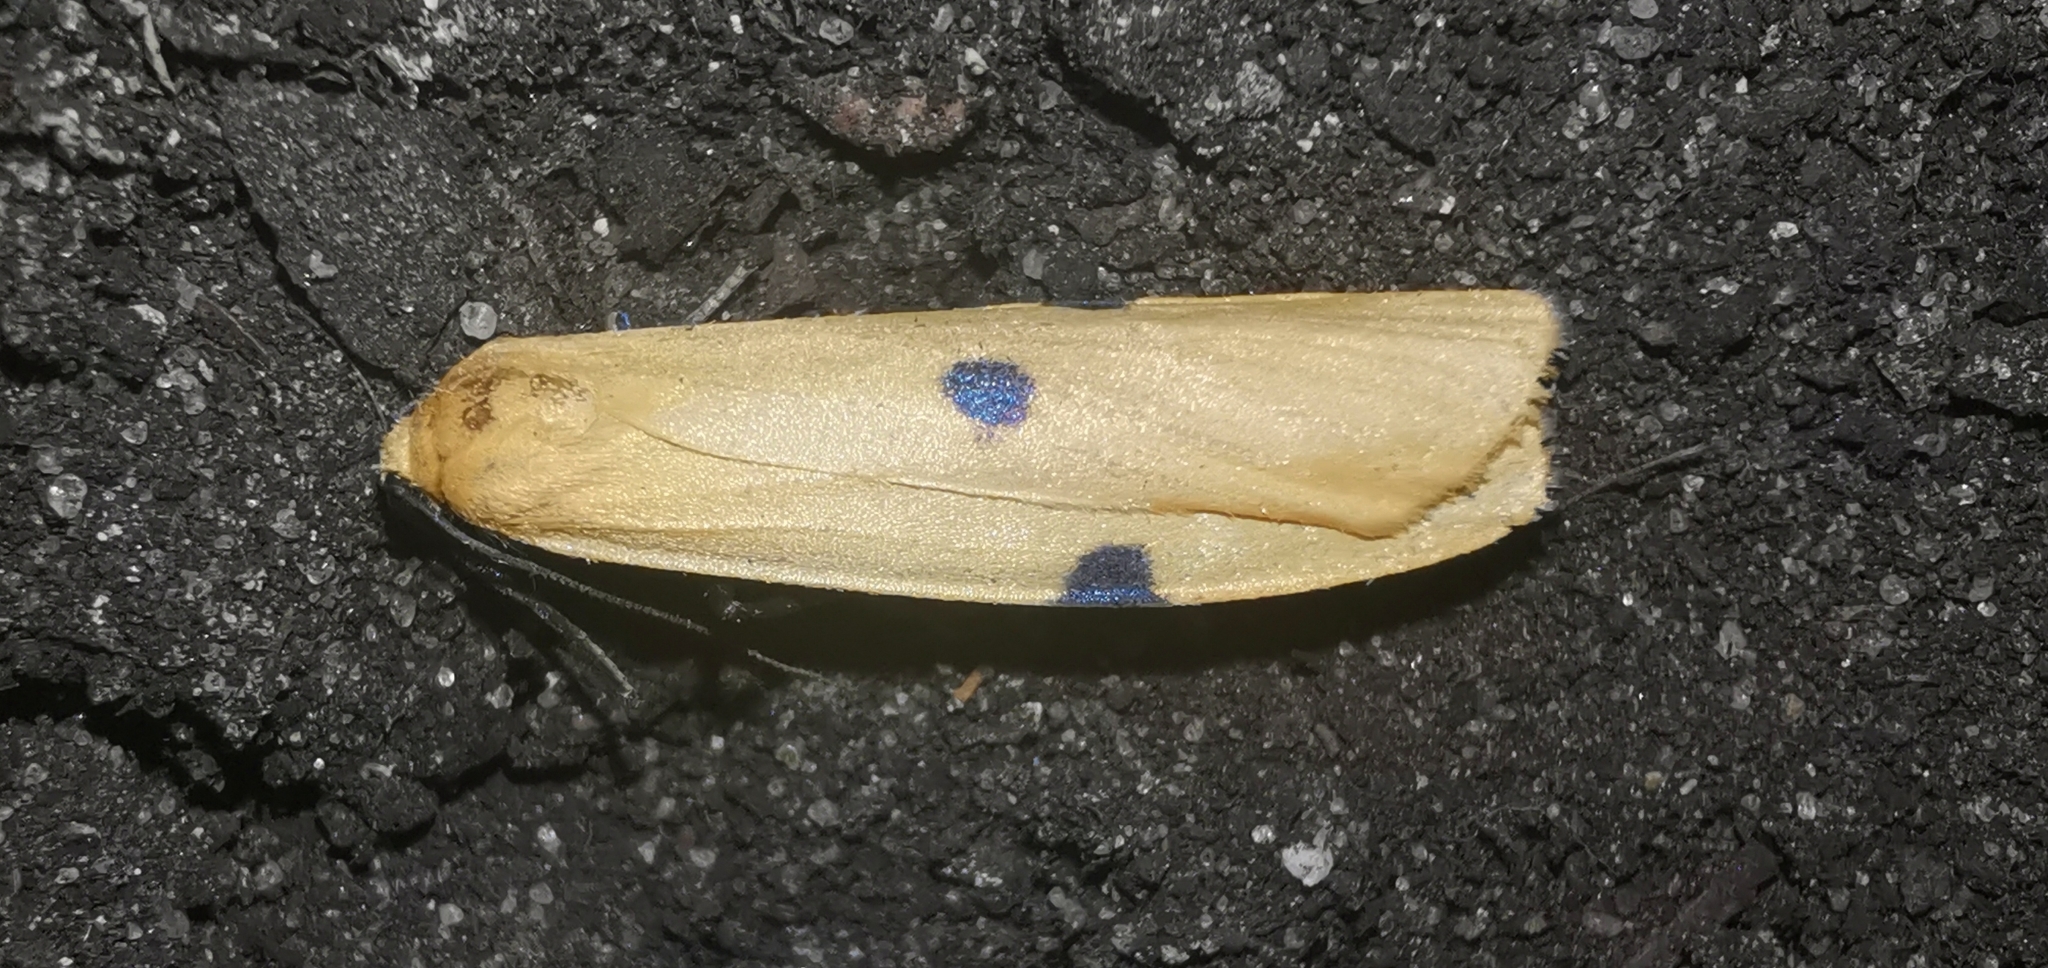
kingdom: Animalia
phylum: Arthropoda
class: Insecta
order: Lepidoptera
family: Erebidae
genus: Lithosia
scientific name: Lithosia quadra
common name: Four-spotted footman
